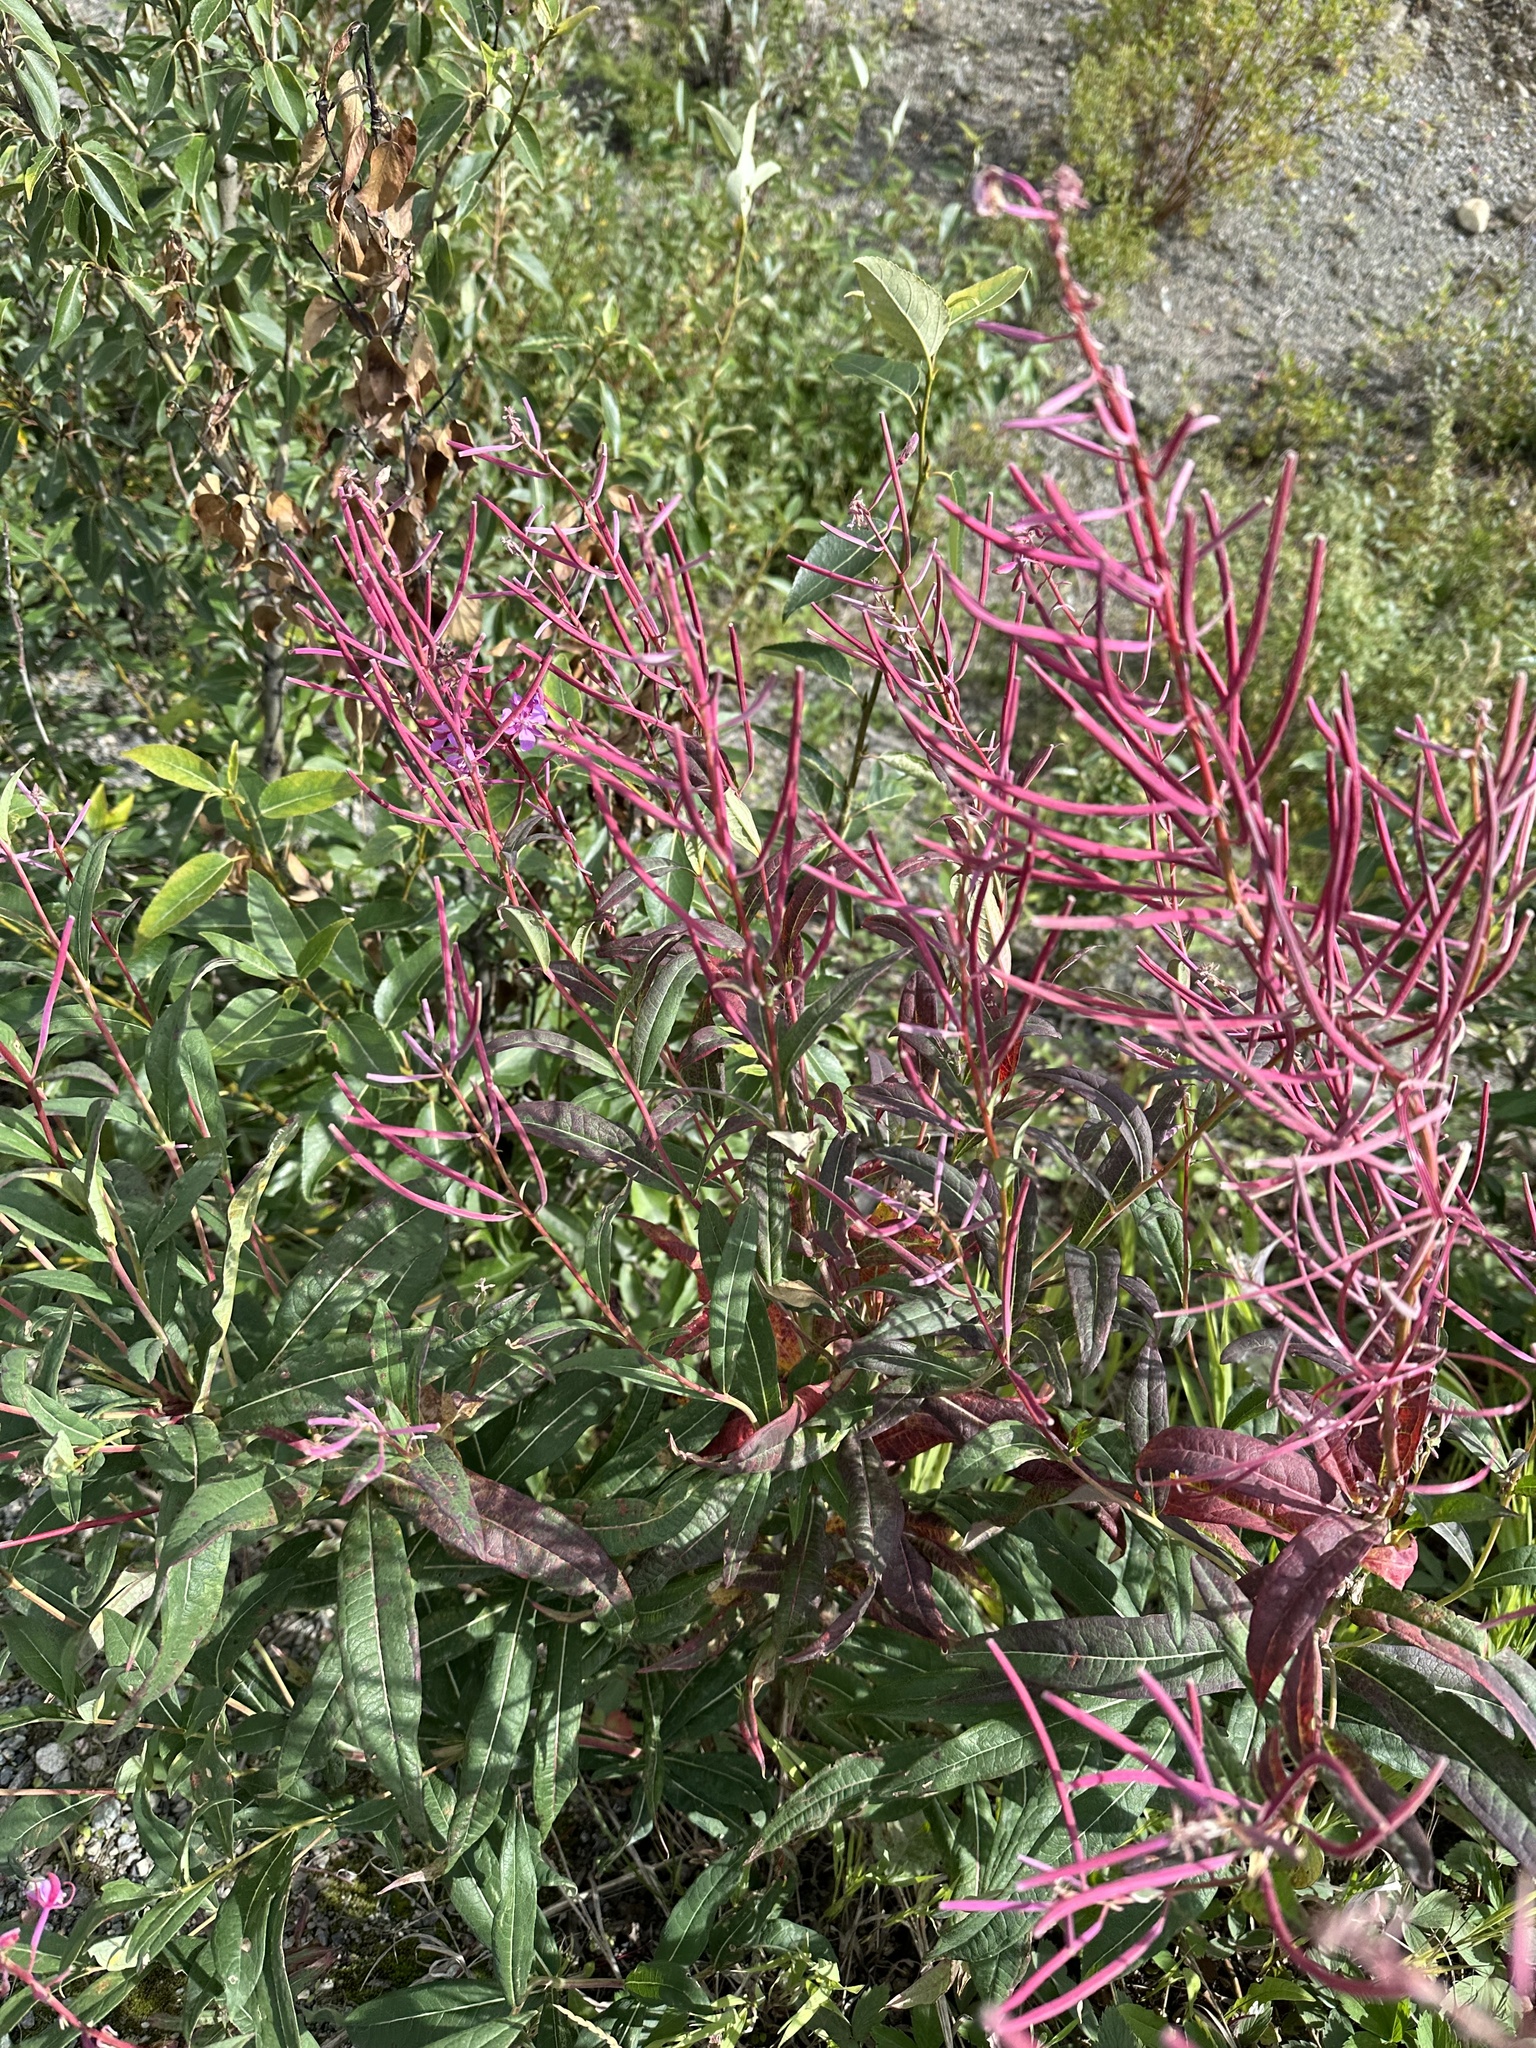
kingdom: Plantae
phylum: Tracheophyta
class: Magnoliopsida
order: Myrtales
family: Onagraceae
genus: Chamaenerion
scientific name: Chamaenerion angustifolium
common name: Fireweed
